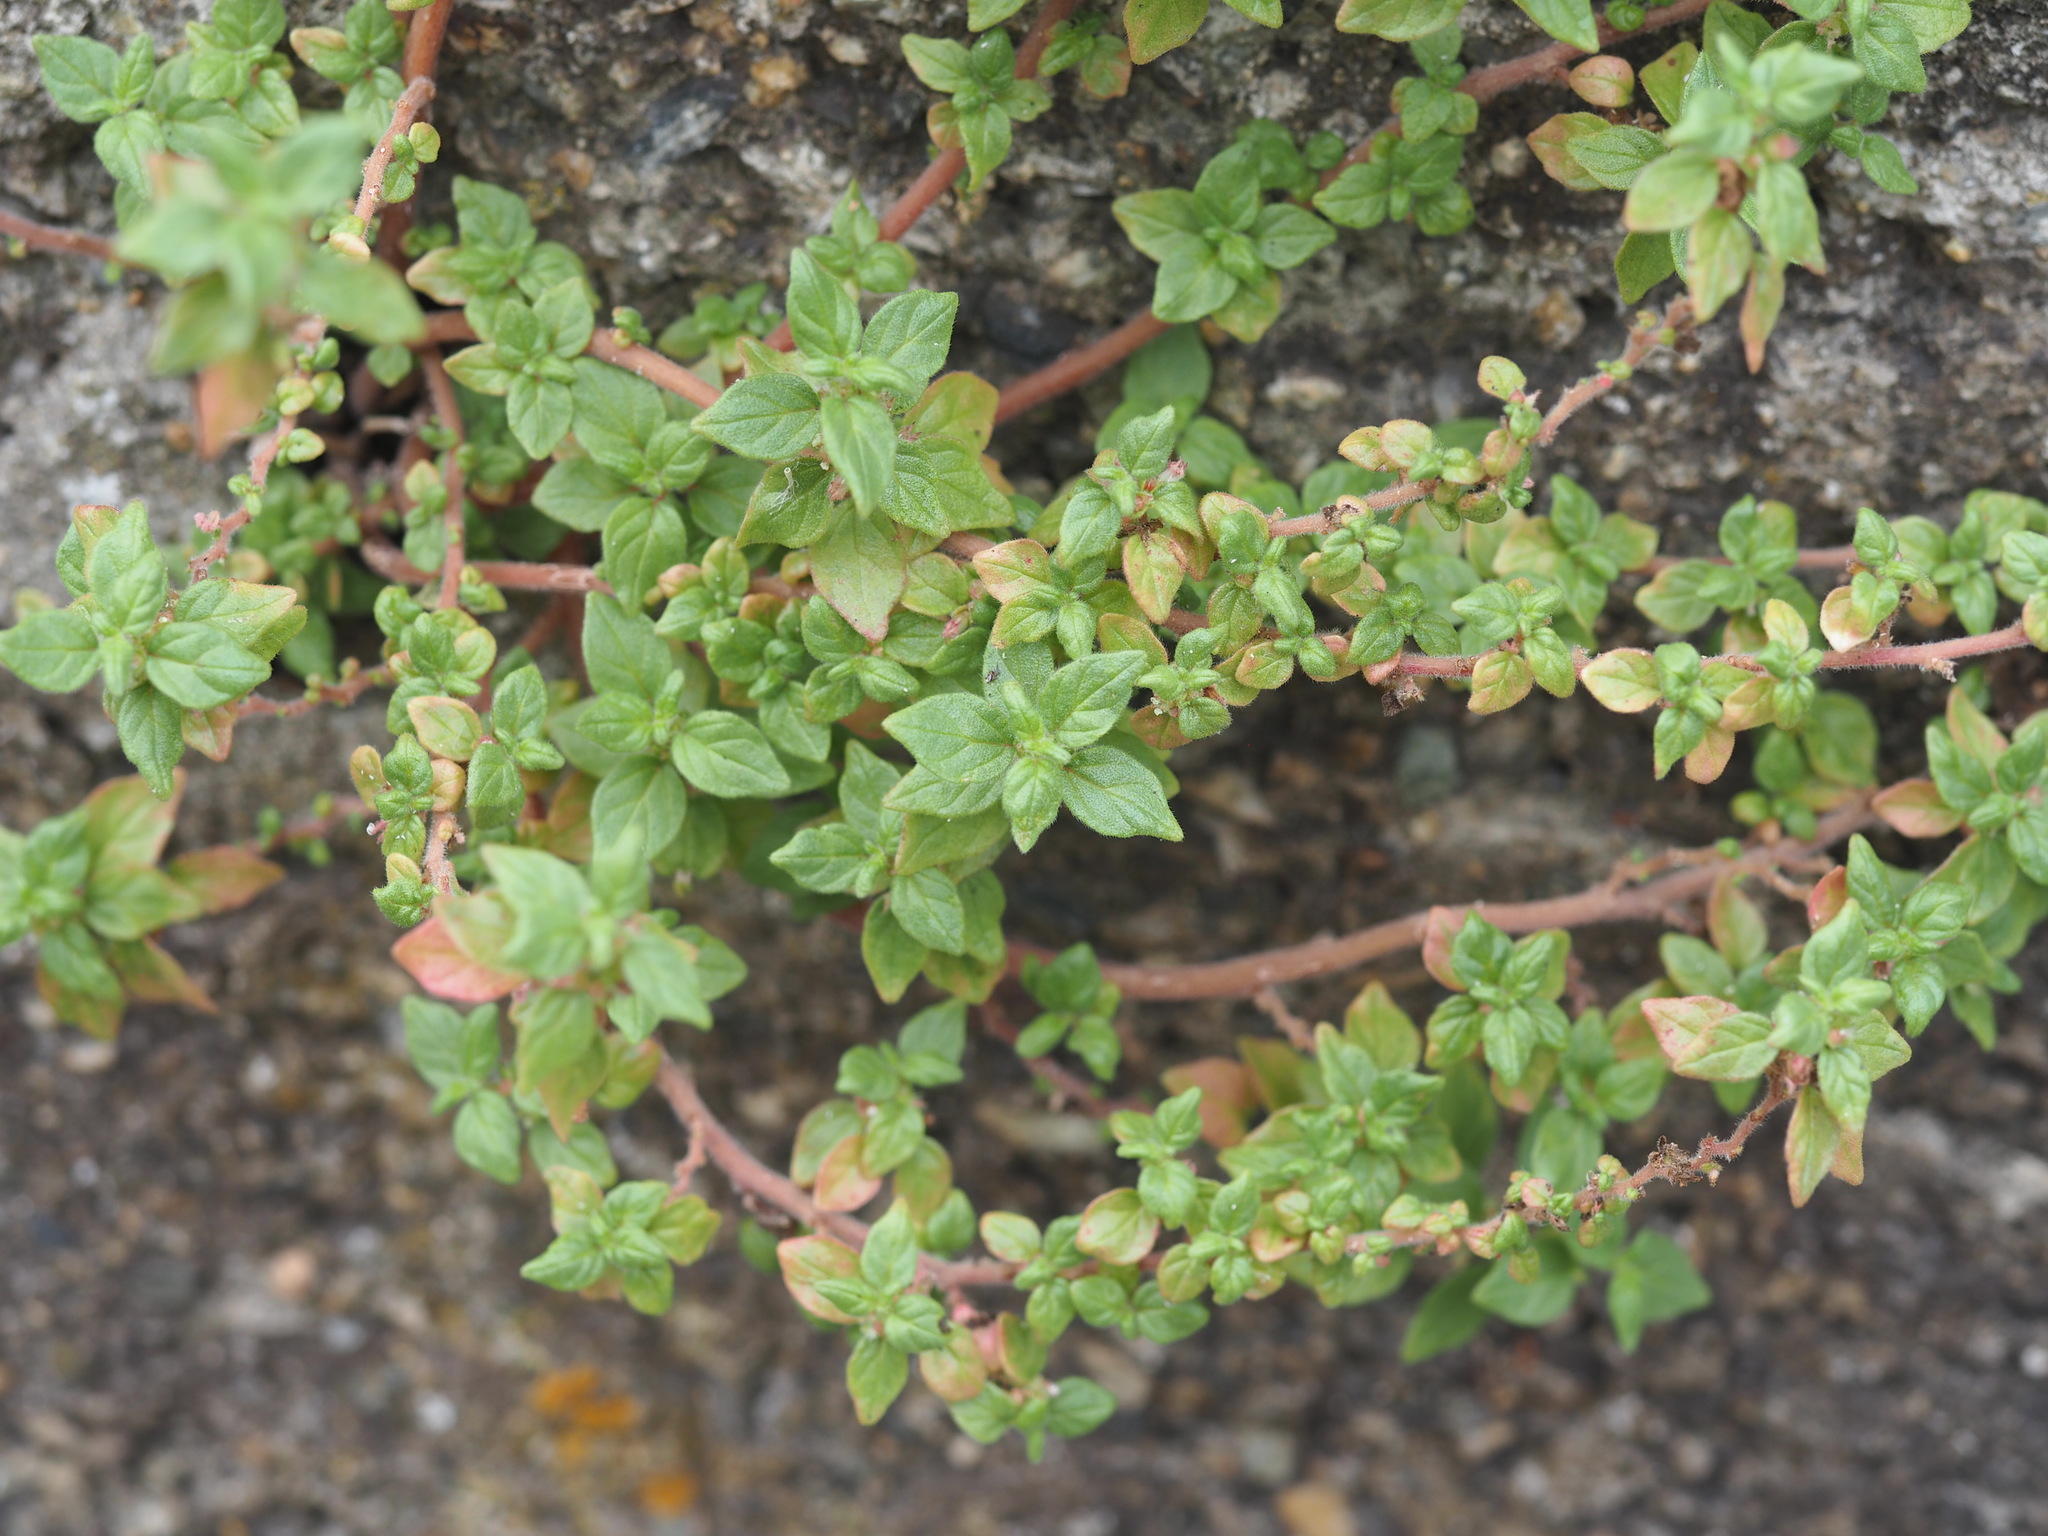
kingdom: Plantae
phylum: Tracheophyta
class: Magnoliopsida
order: Rosales
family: Urticaceae
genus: Parietaria
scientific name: Parietaria judaica
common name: Pellitory-of-the-wall
